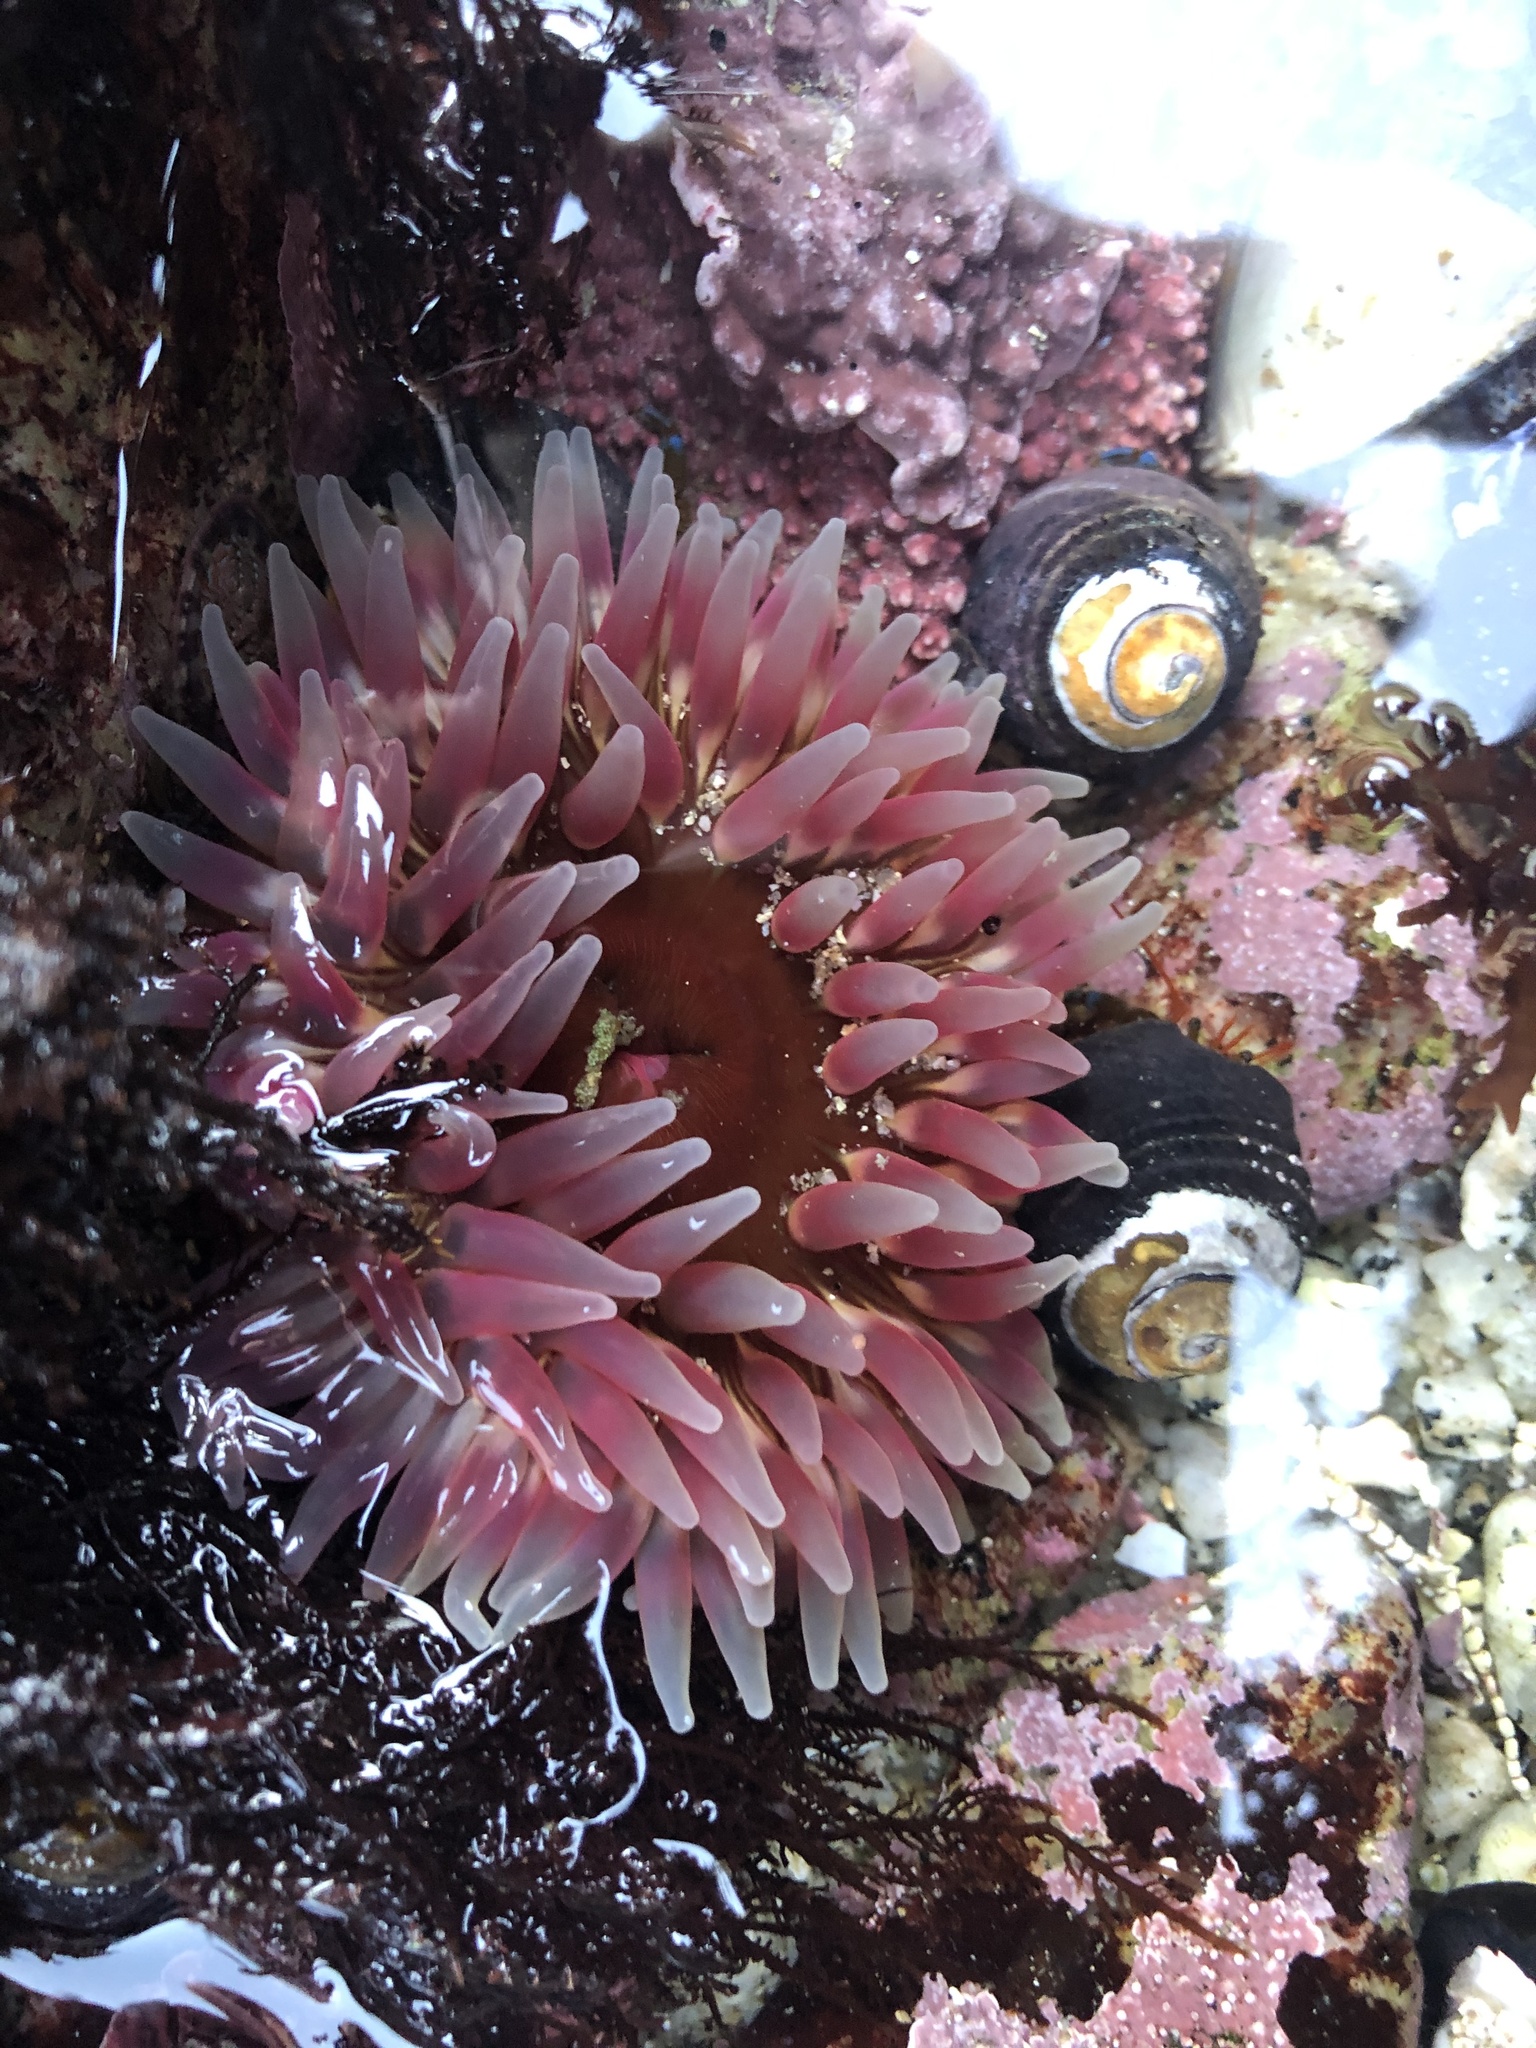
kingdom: Animalia
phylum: Cnidaria
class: Anthozoa
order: Actiniaria
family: Actiniidae
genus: Urticina
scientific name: Urticina clandestina
